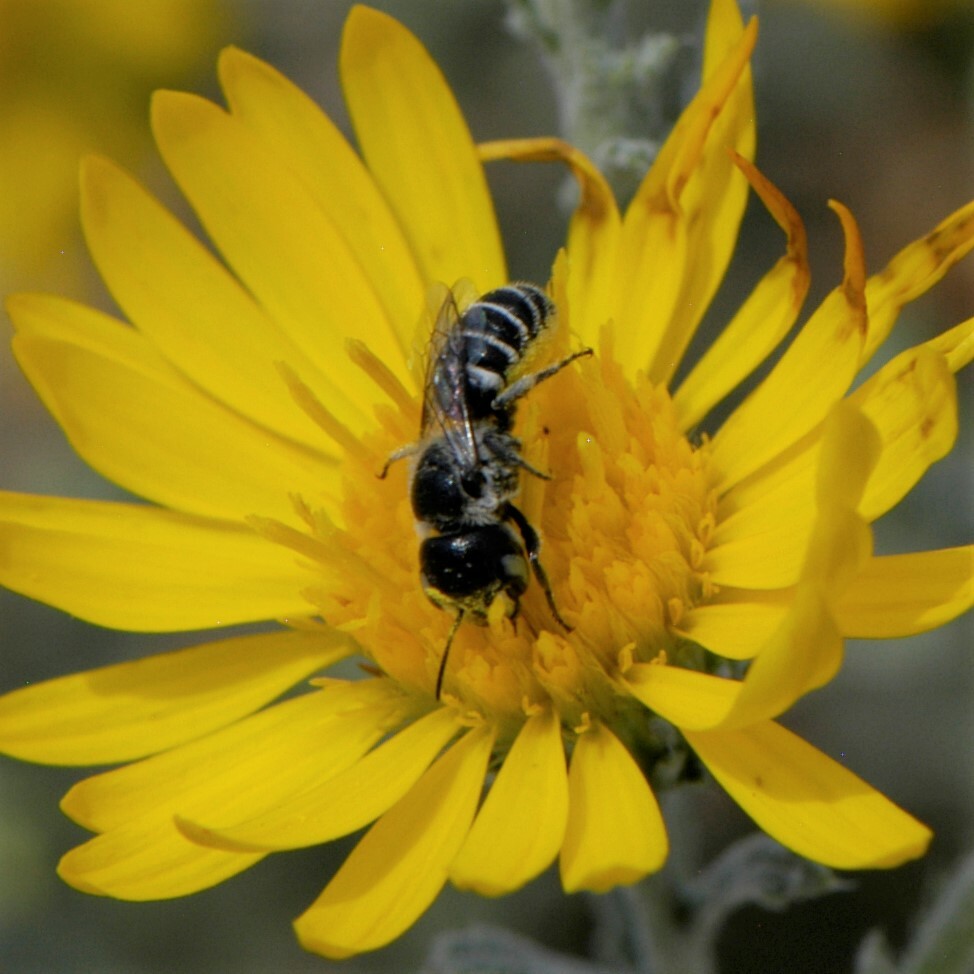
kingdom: Animalia
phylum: Arthropoda
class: Insecta
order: Hymenoptera
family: Megachilidae
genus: Ashmeadiella
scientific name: Ashmeadiella
